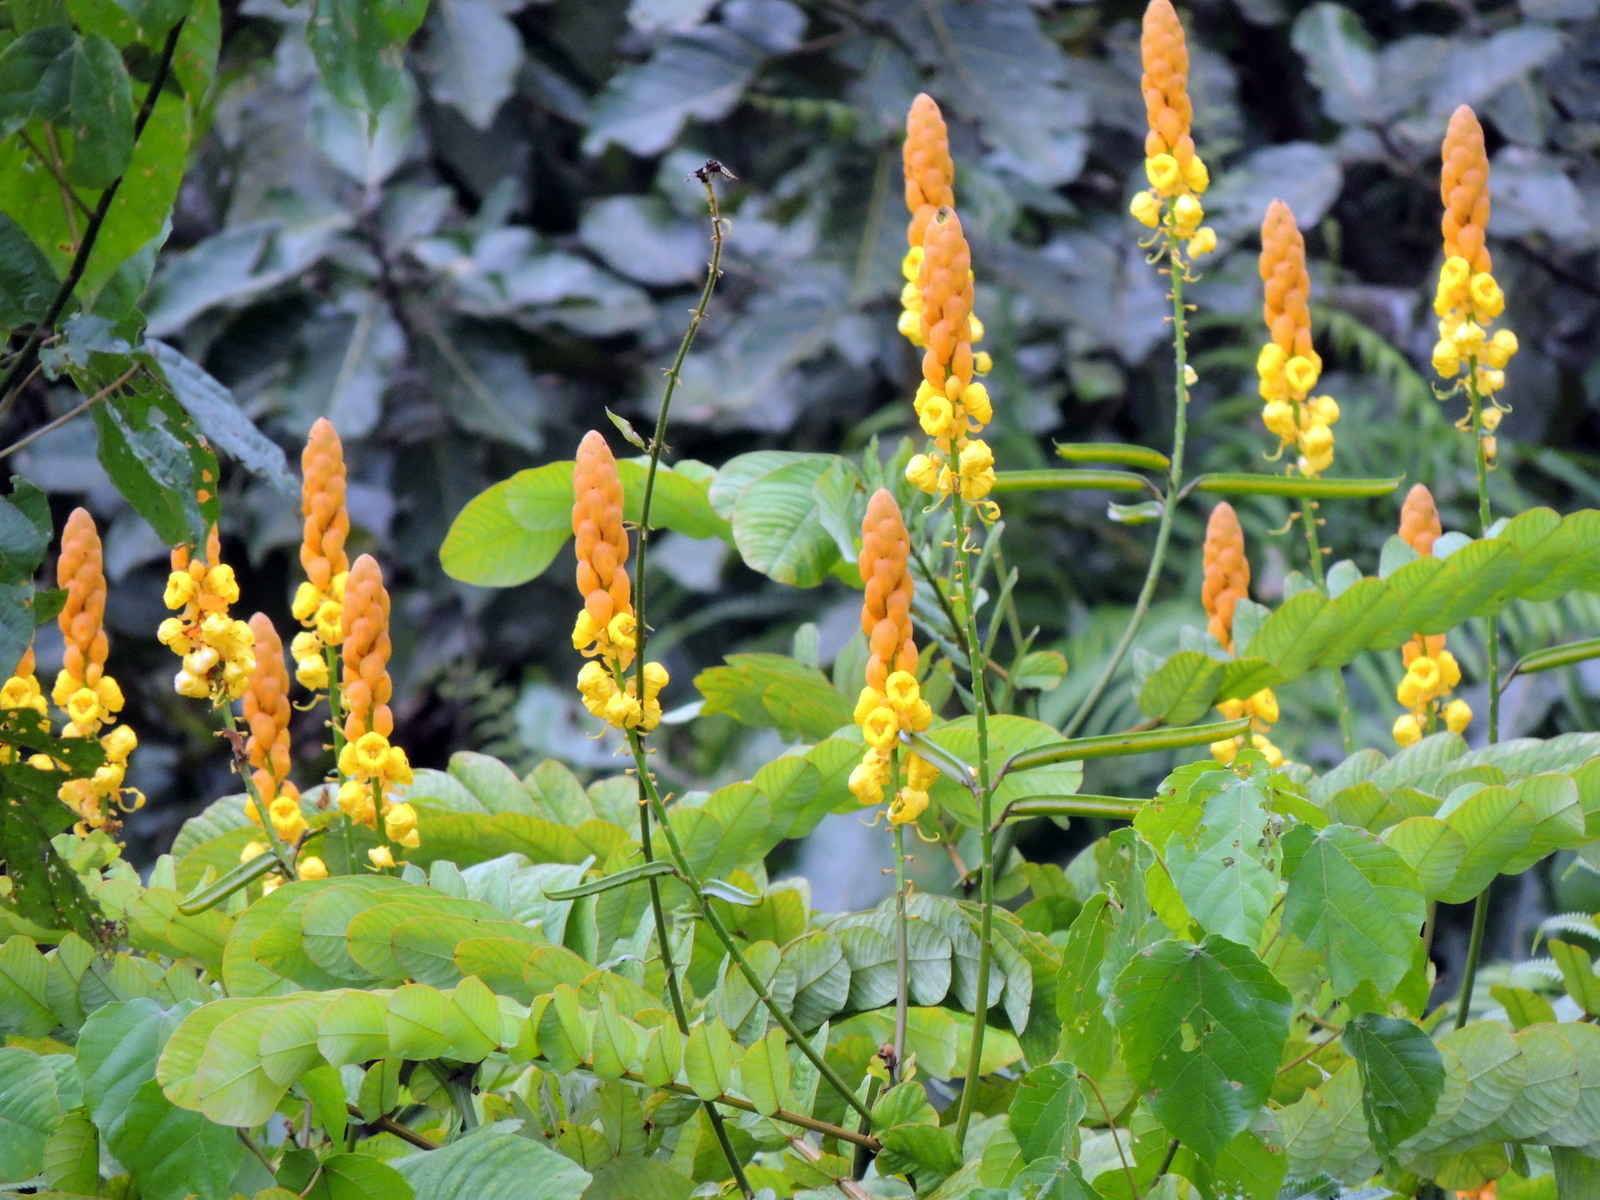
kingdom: Plantae
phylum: Tracheophyta
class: Magnoliopsida
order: Fabales
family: Fabaceae
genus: Senna
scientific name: Senna alata
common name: Emperor's candlesticks
